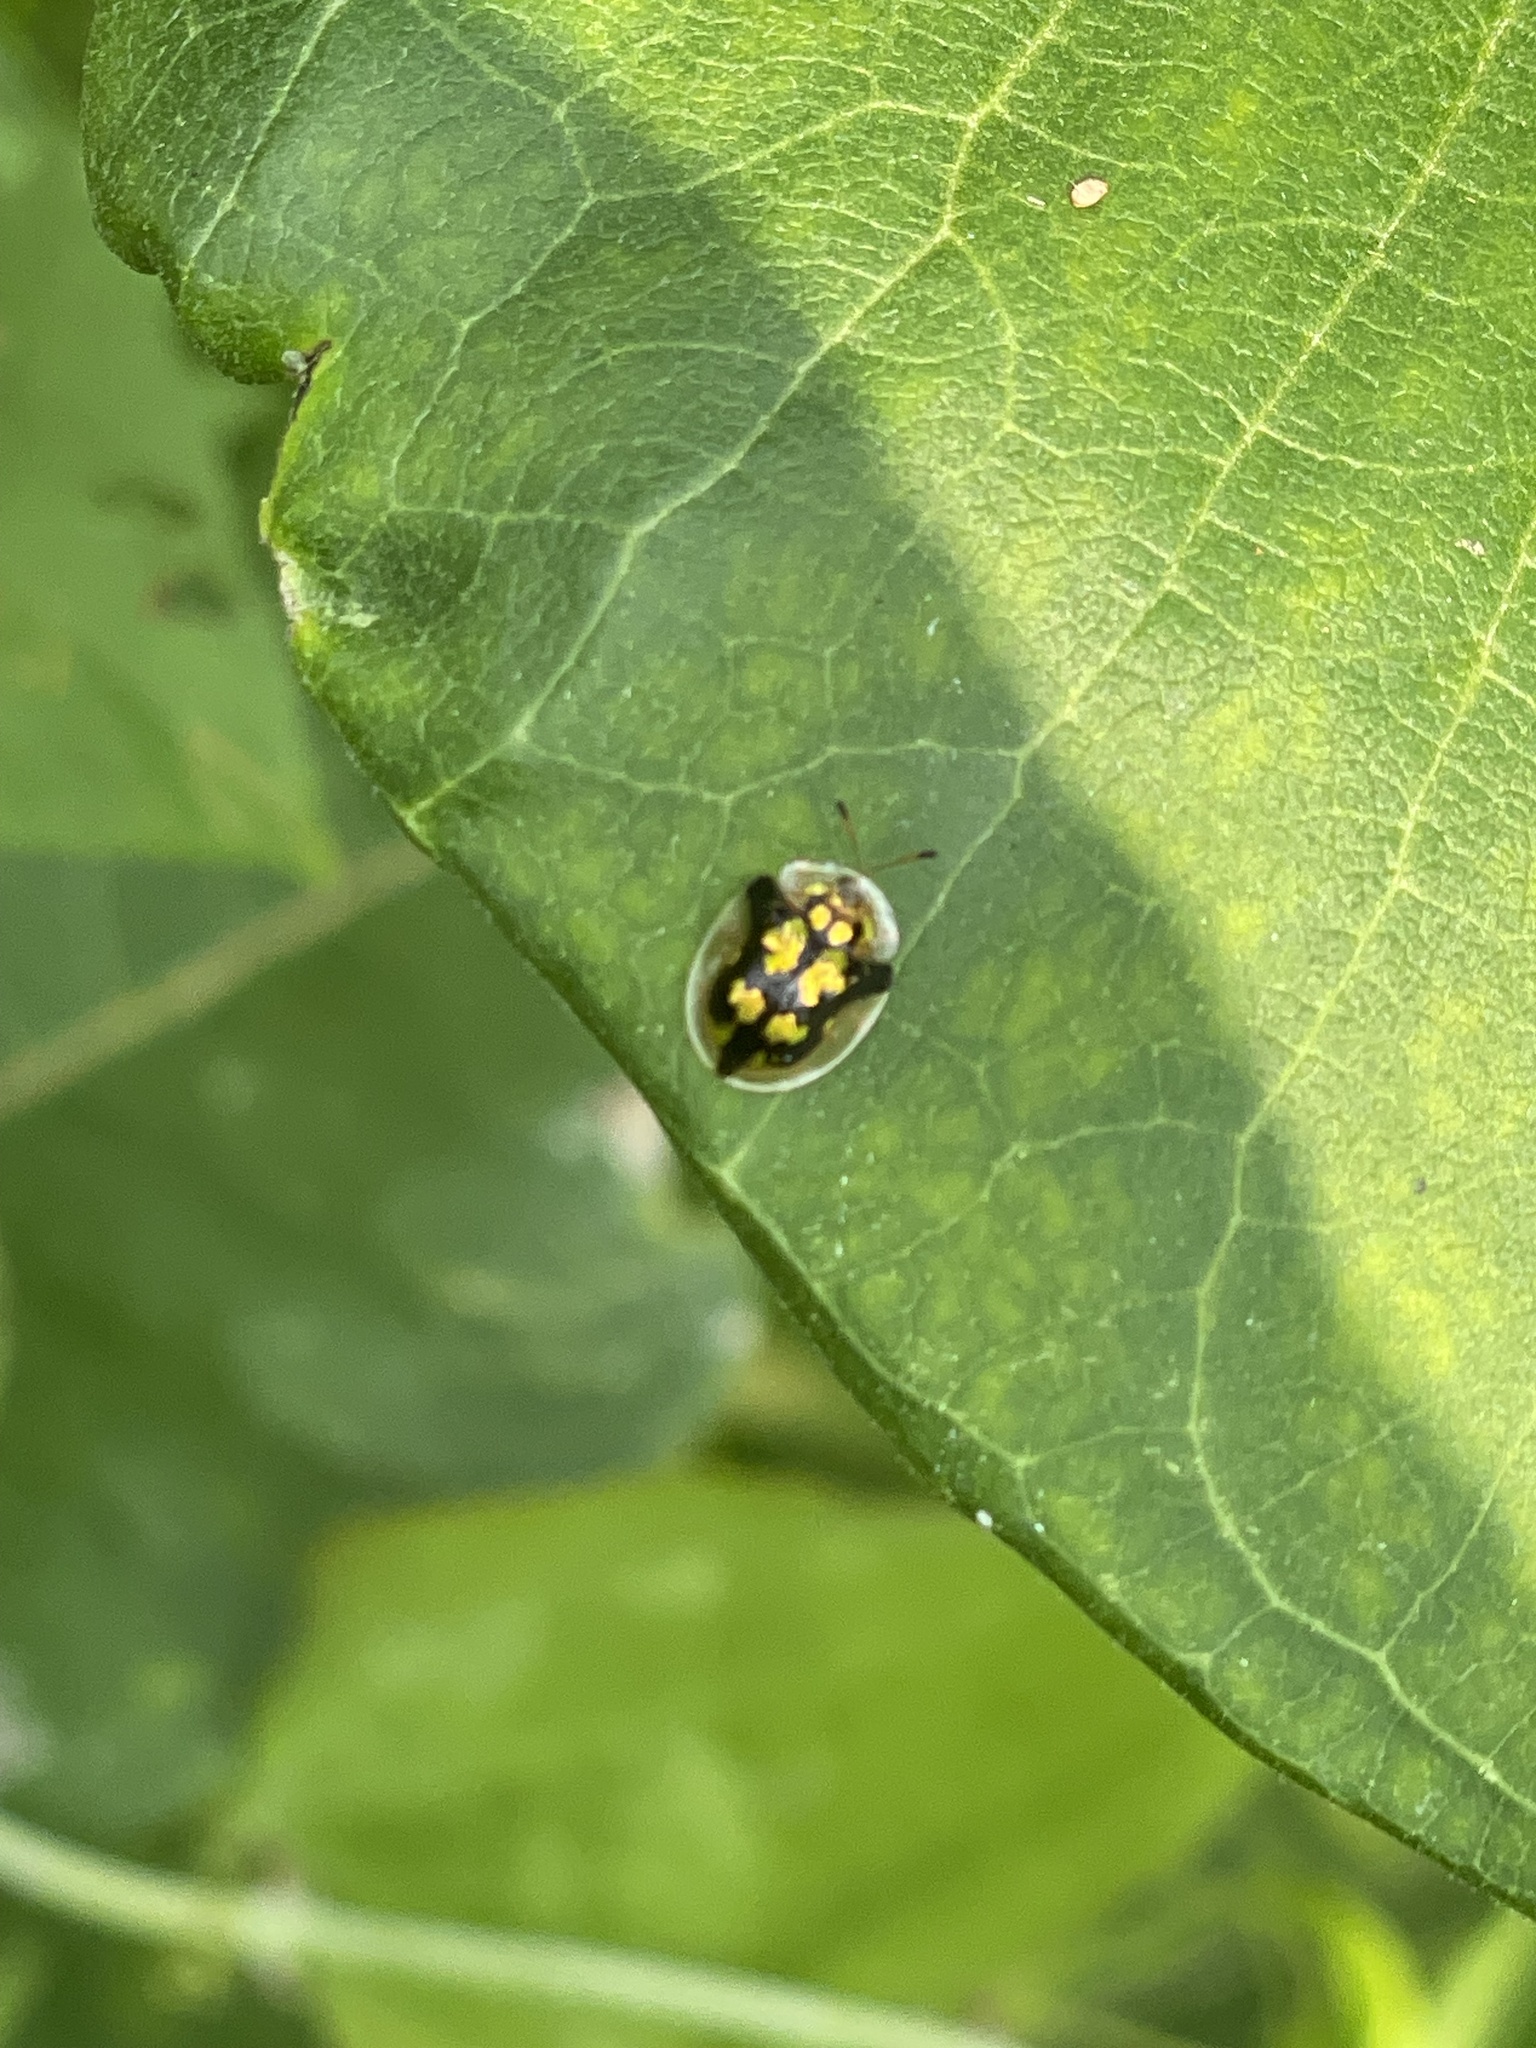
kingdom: Animalia
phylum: Arthropoda
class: Insecta
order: Coleoptera
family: Chrysomelidae
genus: Deloyala
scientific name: Deloyala guttata
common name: Mottled tortoise beetle
